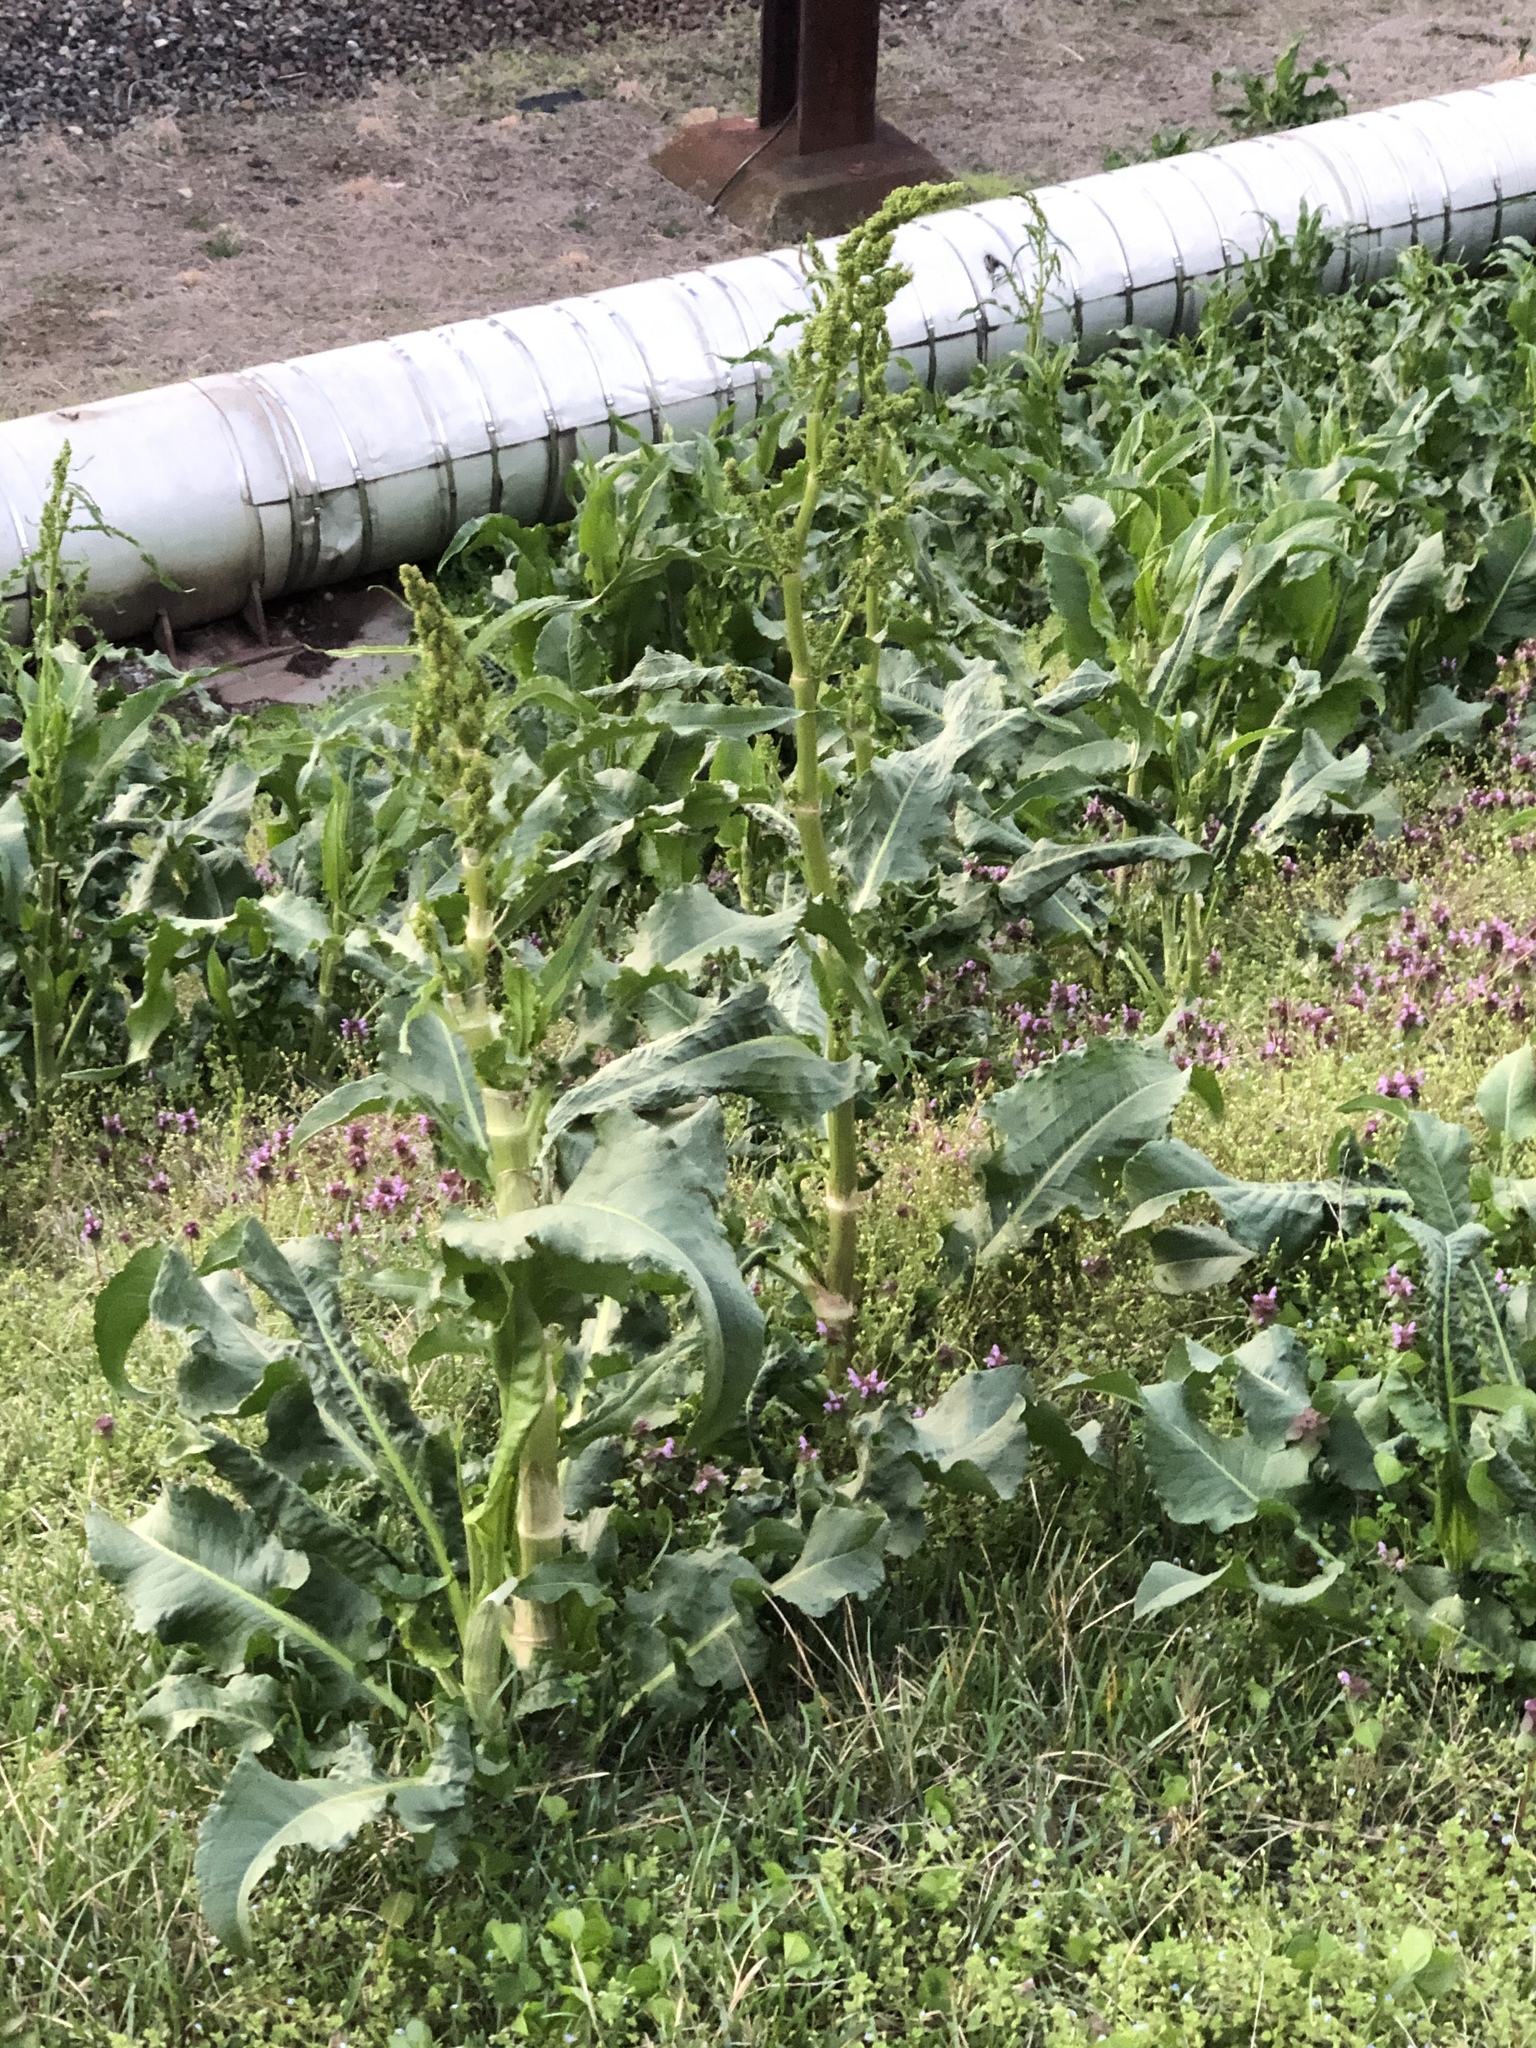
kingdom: Plantae
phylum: Tracheophyta
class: Magnoliopsida
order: Caryophyllales
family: Polygonaceae
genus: Rumex
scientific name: Rumex crispus
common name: Curled dock
